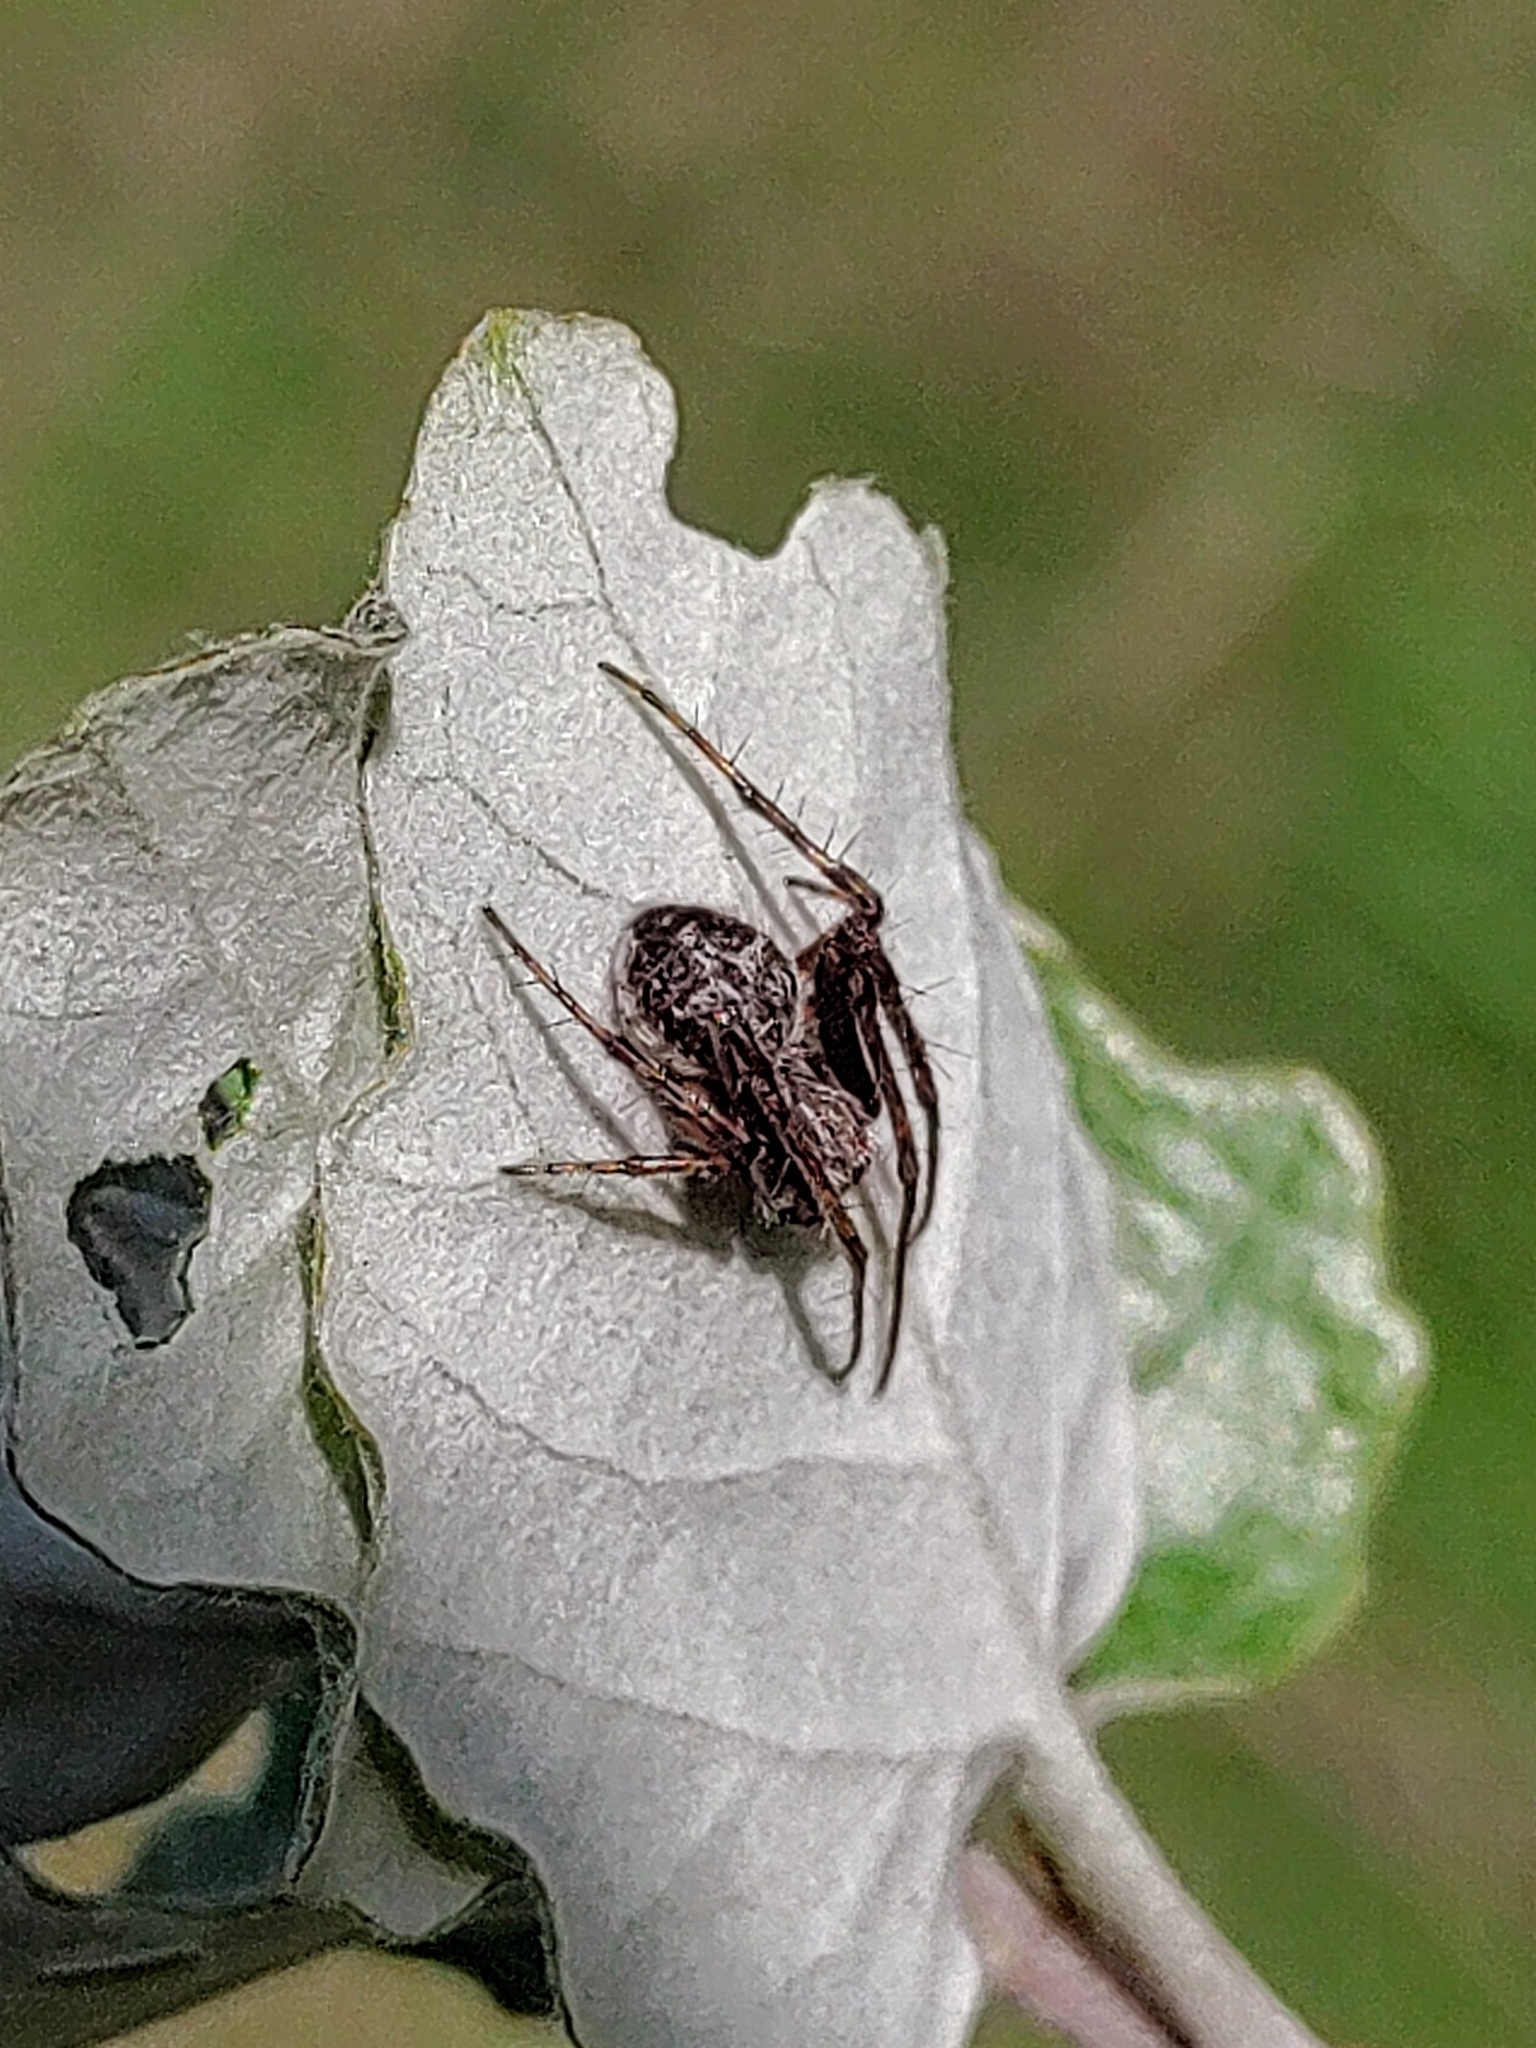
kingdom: Animalia
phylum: Arthropoda
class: Arachnida
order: Araneae
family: Araneidae
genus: Agalenatea
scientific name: Agalenatea redii
